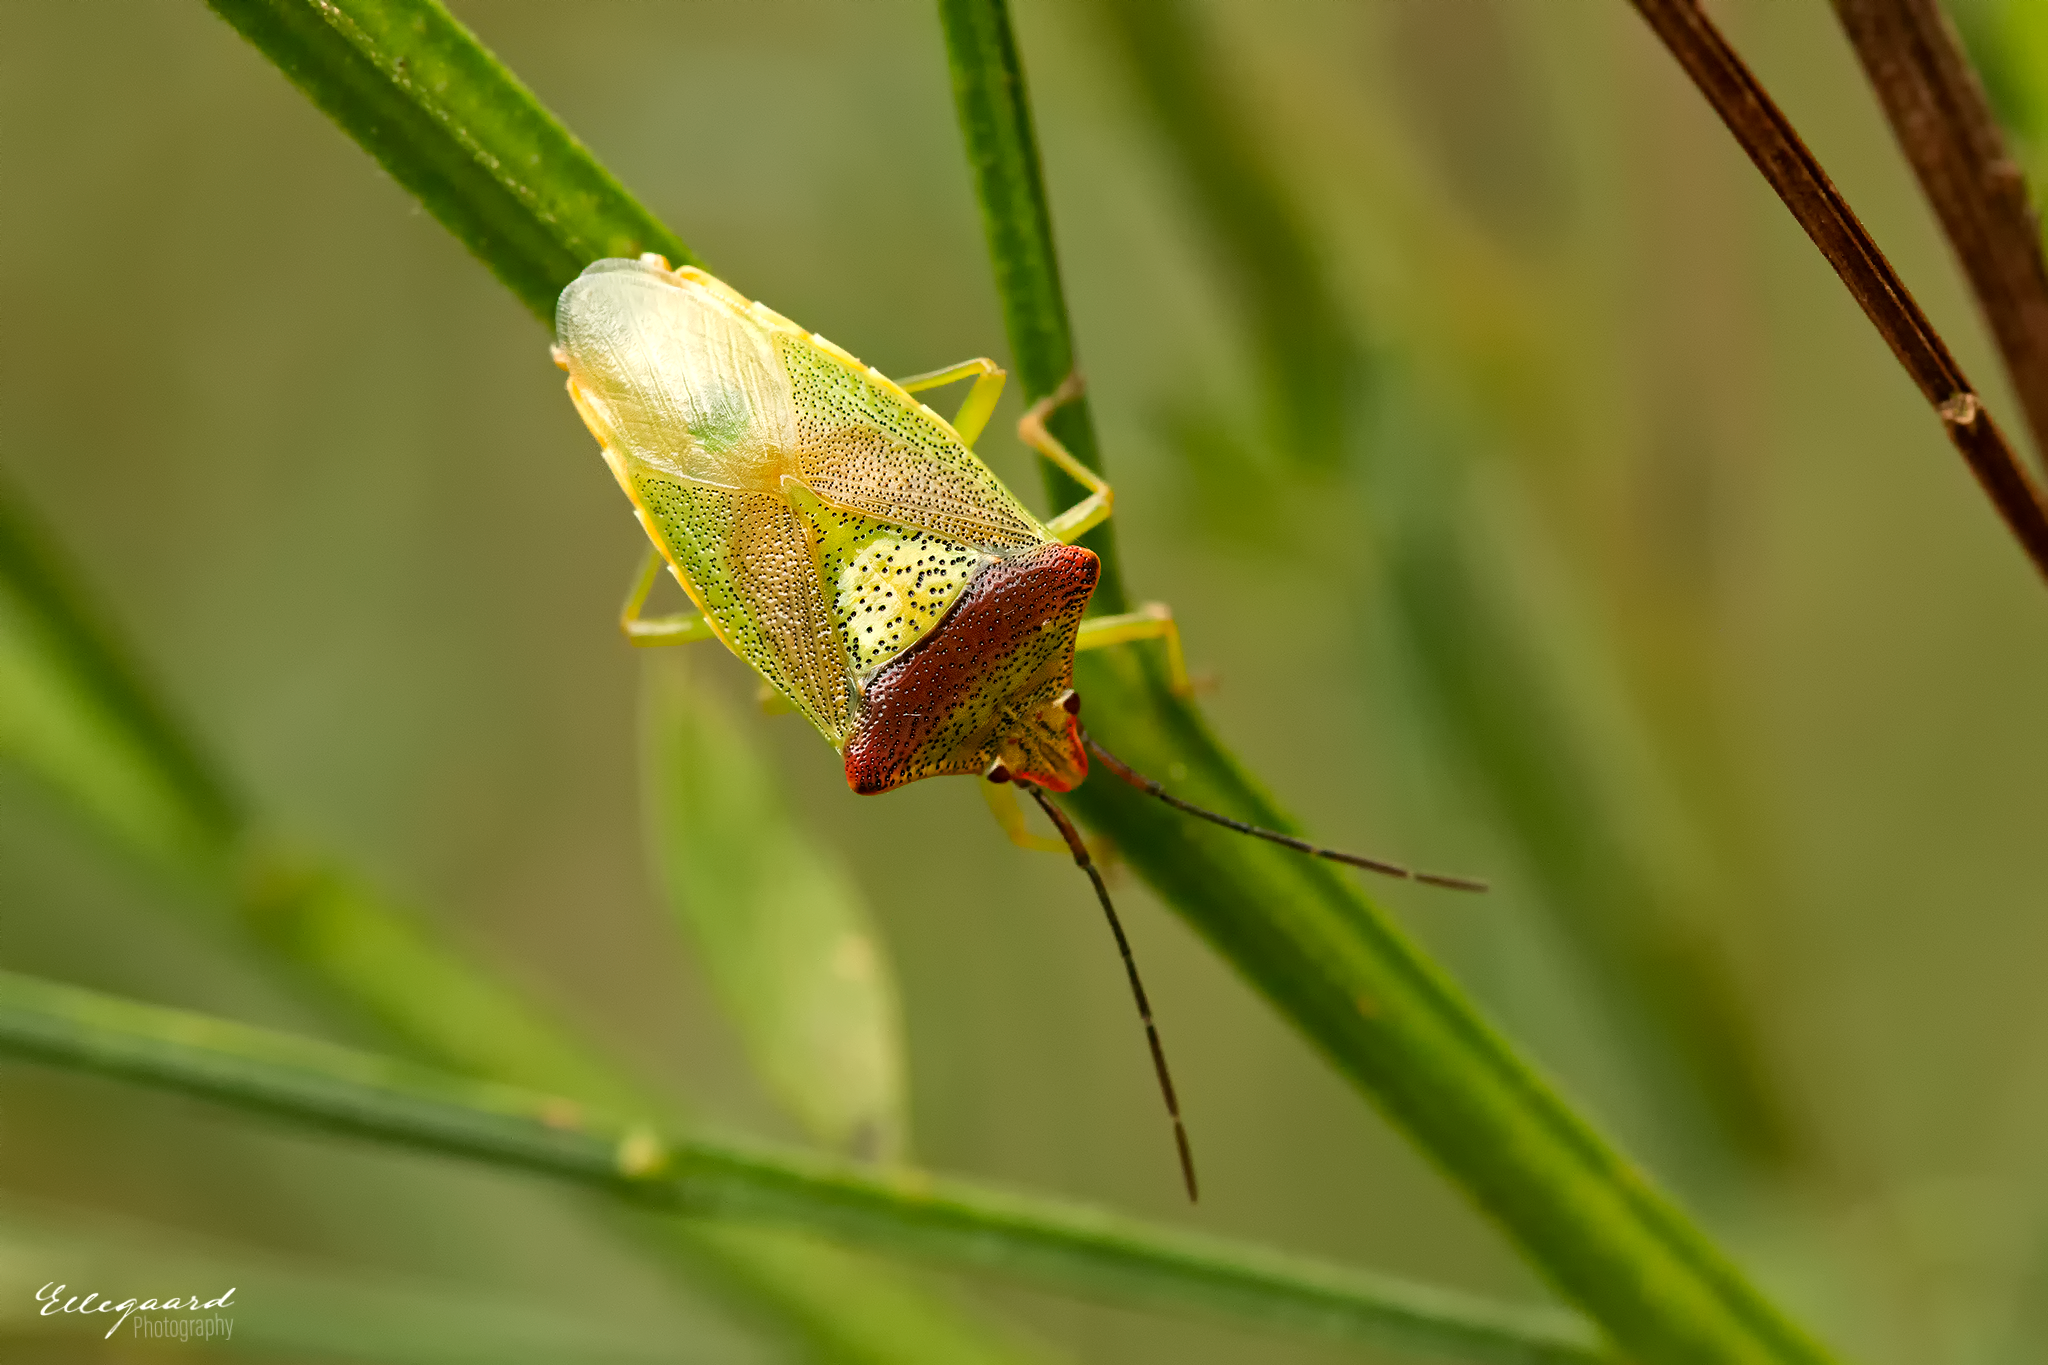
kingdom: Animalia
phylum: Arthropoda
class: Insecta
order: Hemiptera
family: Acanthosomatidae
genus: Acanthosoma
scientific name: Acanthosoma haemorrhoidale
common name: Hawthorn shieldbug
